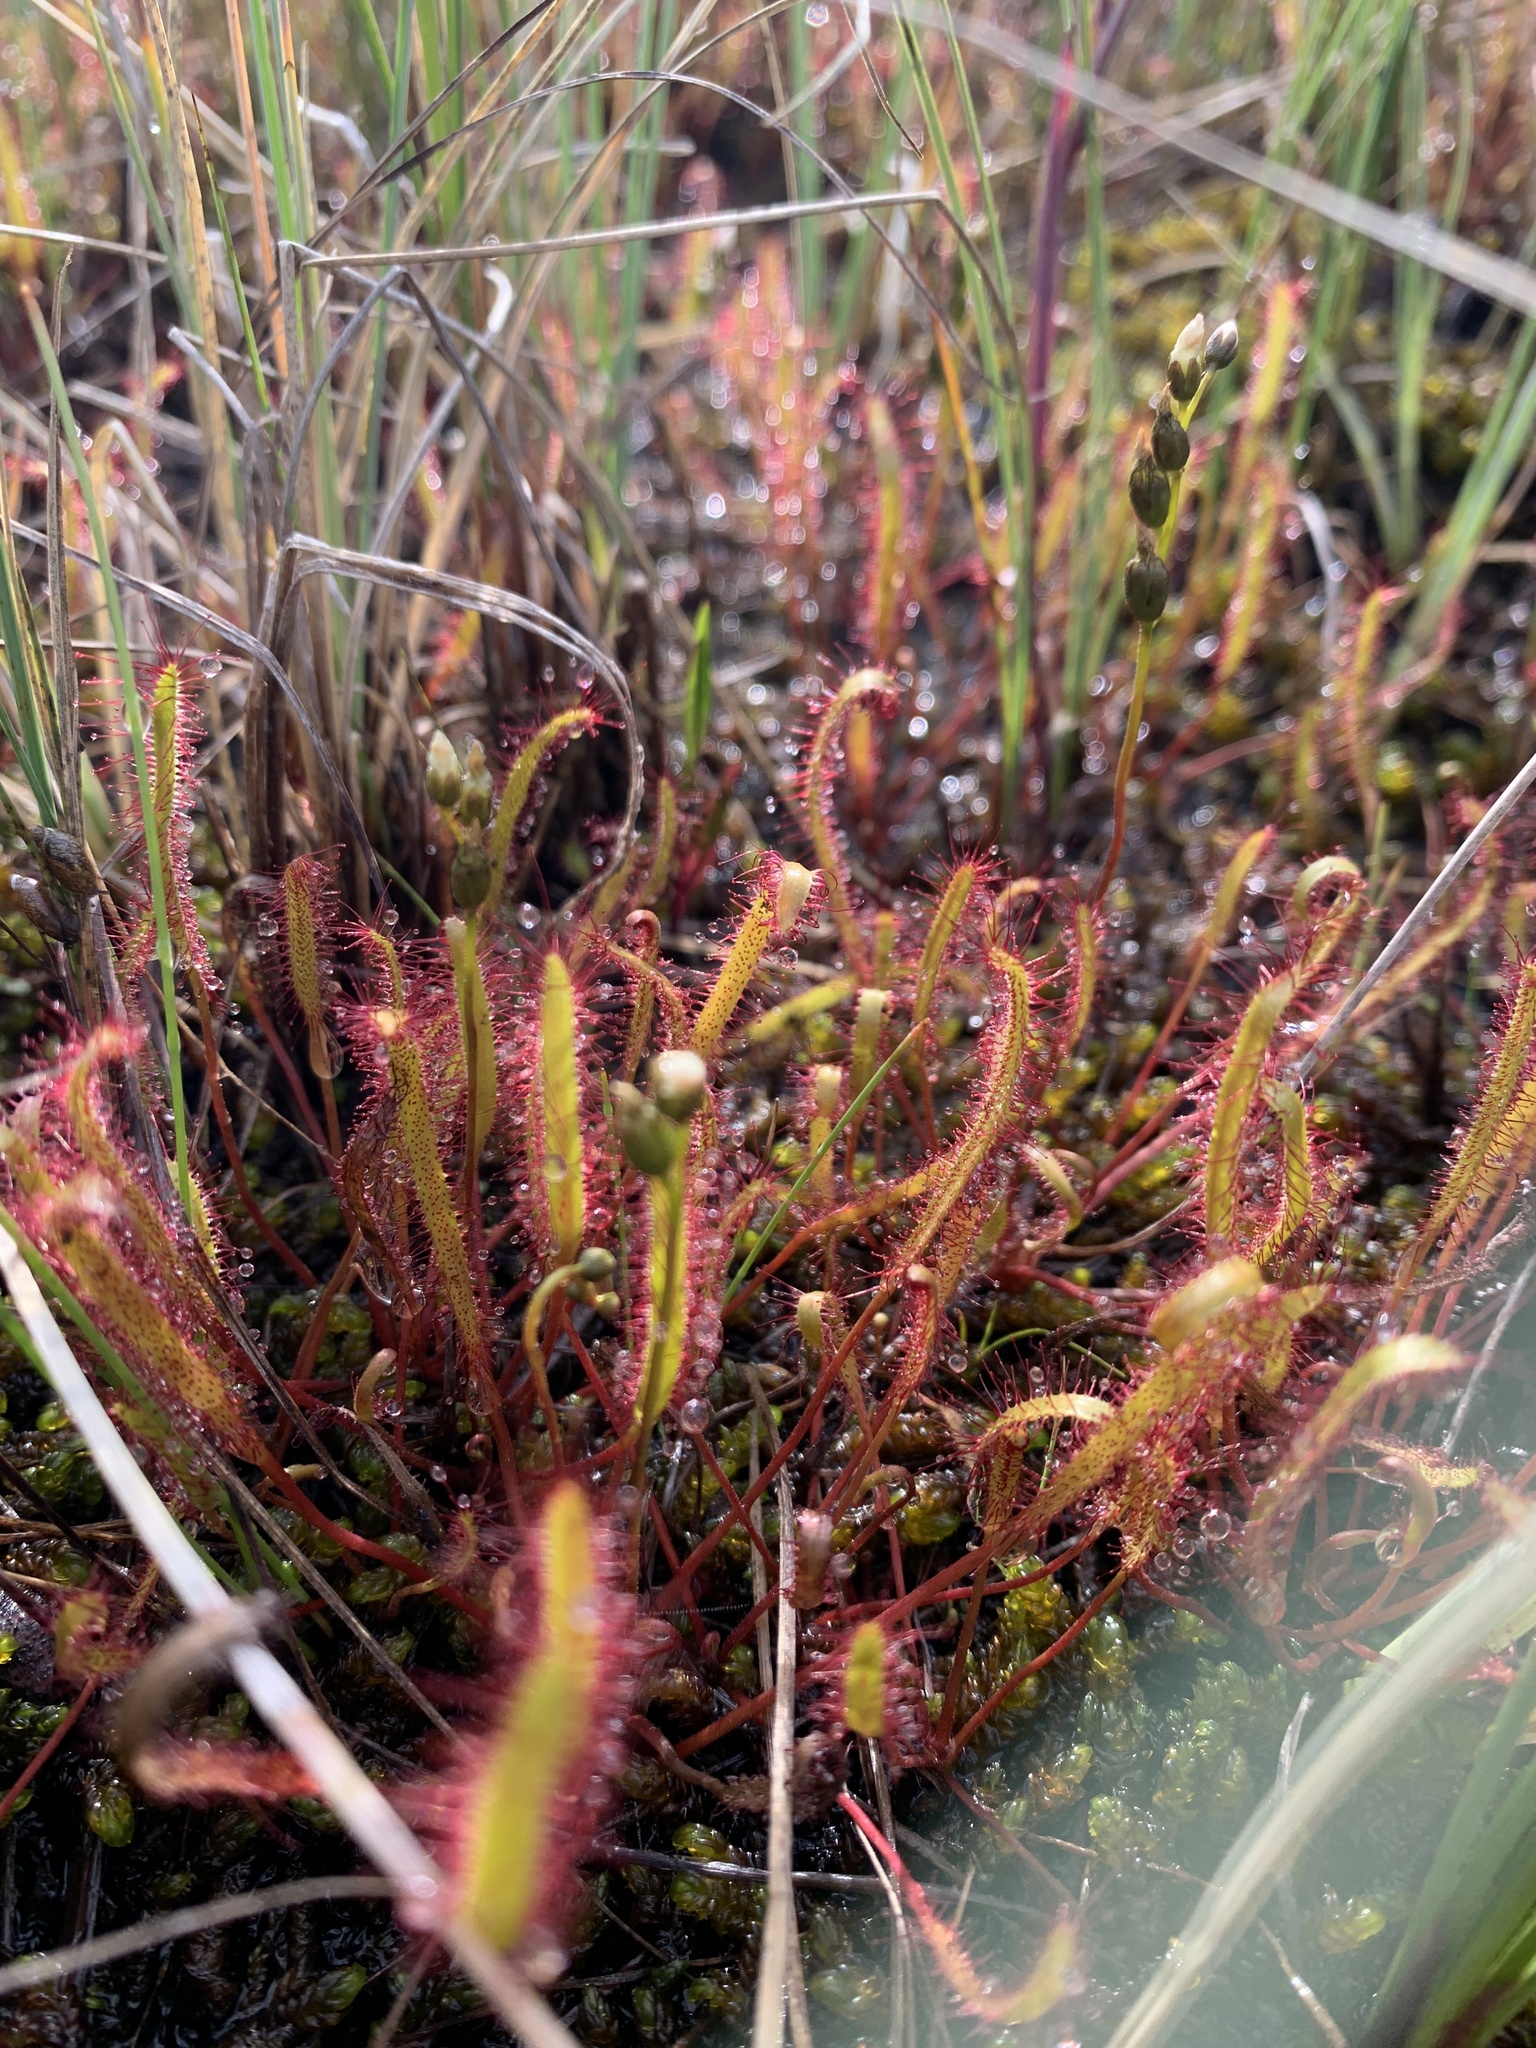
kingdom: Plantae
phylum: Tracheophyta
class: Magnoliopsida
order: Caryophyllales
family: Droseraceae
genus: Drosera
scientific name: Drosera linearis
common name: Linear-leaved sundew
